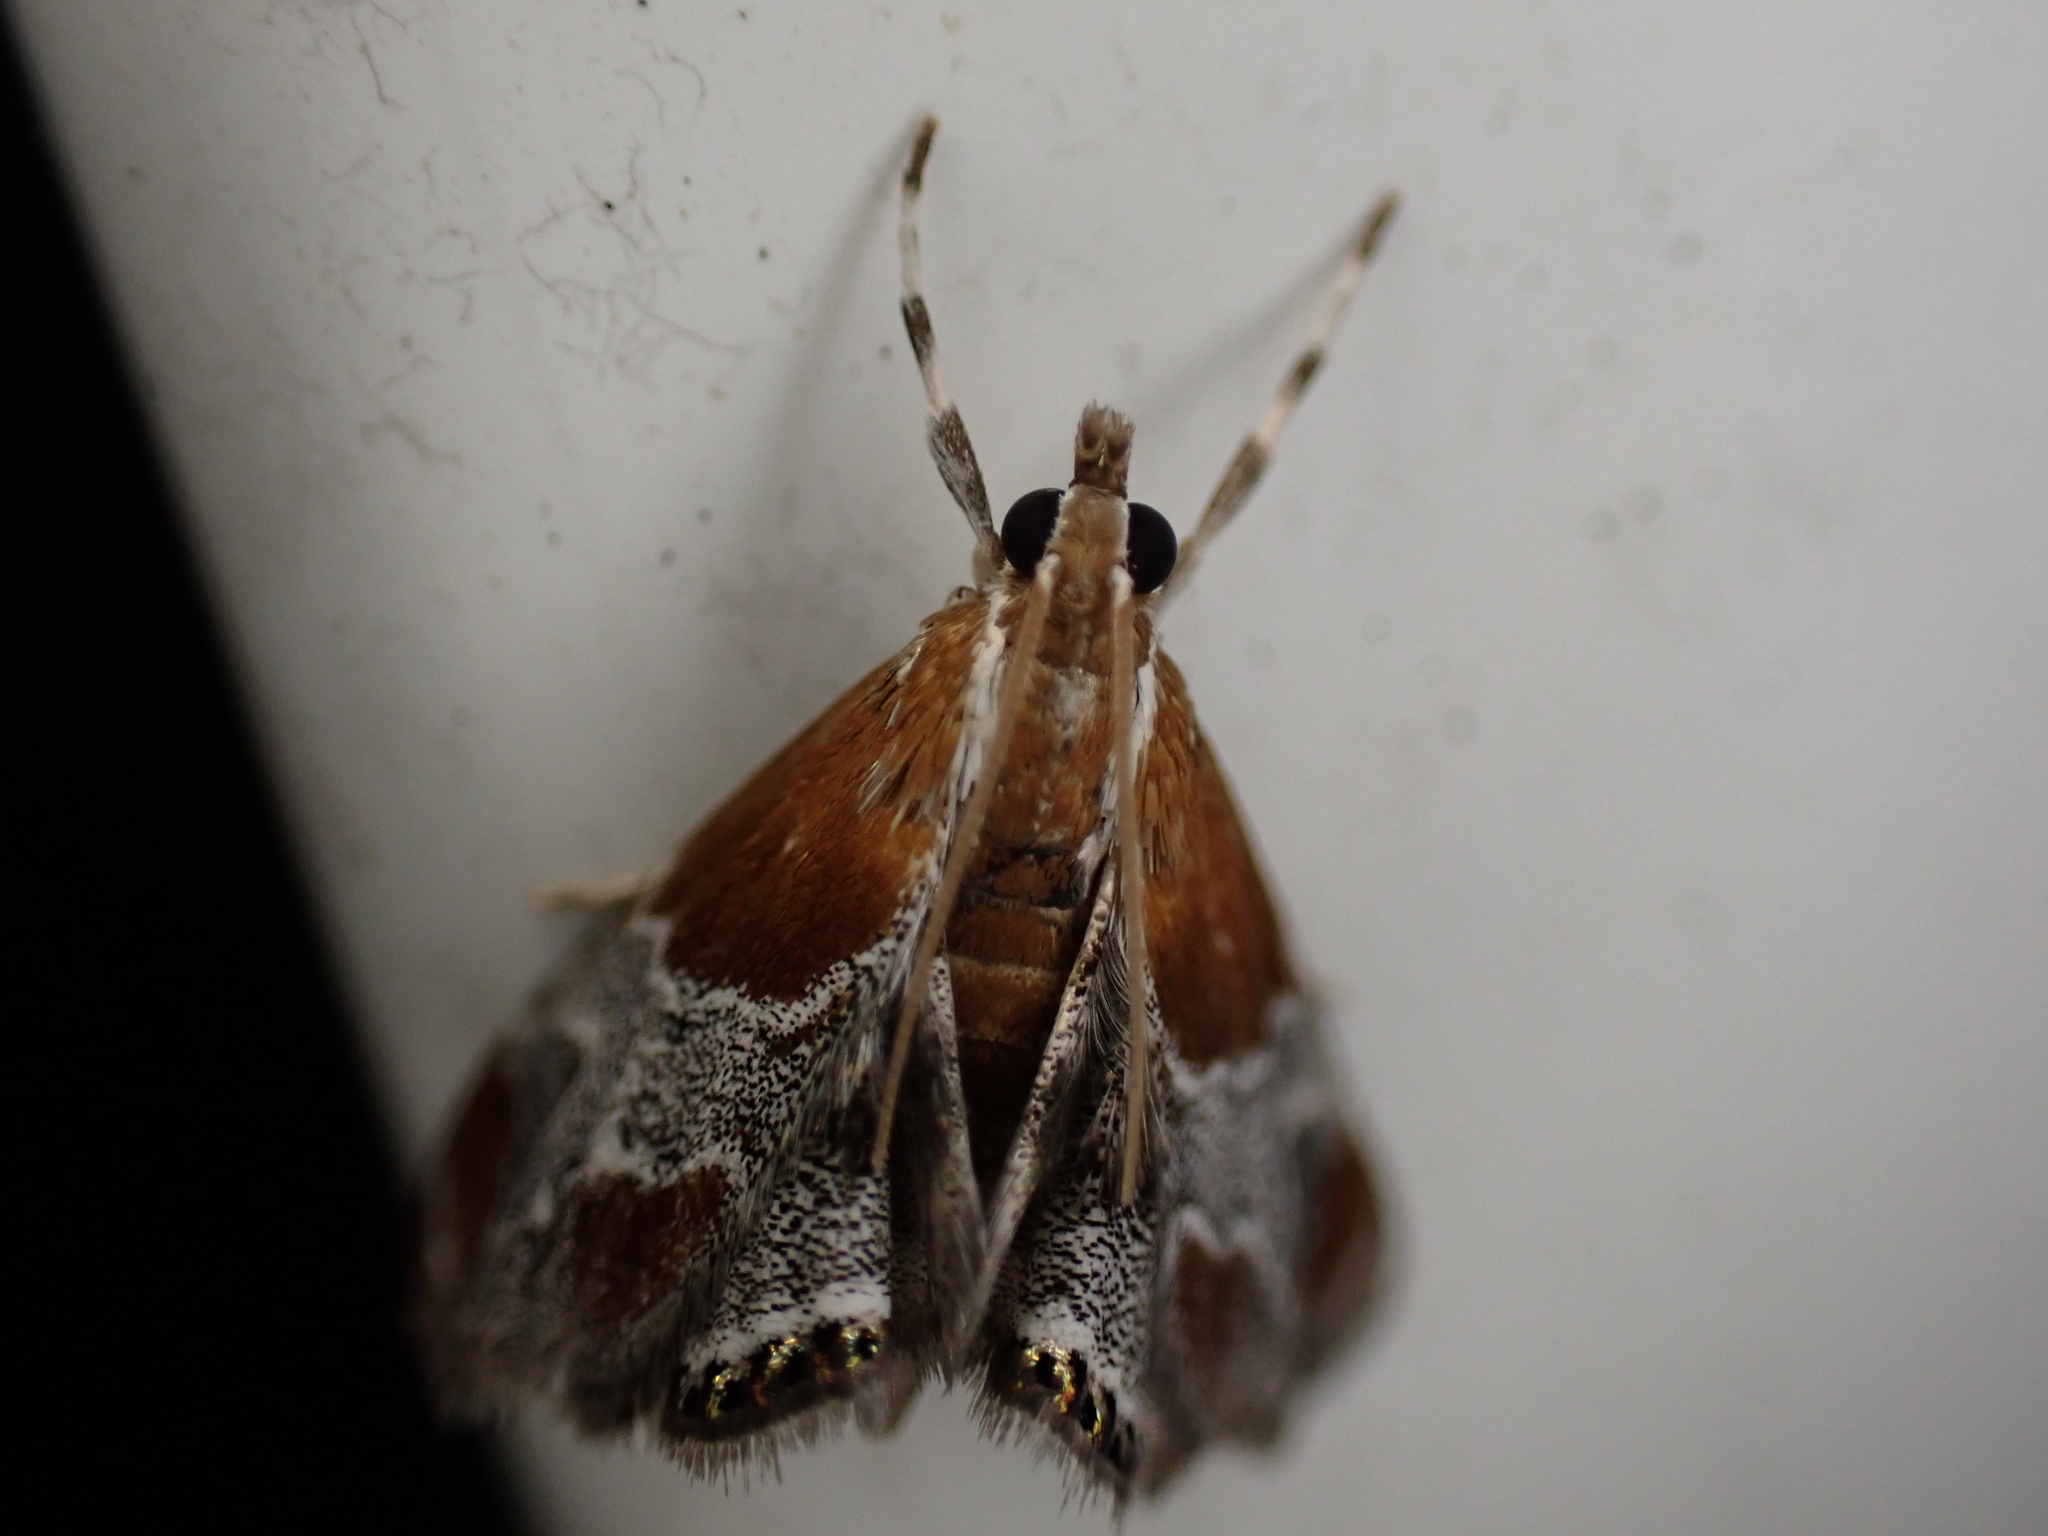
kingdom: Animalia
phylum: Arthropoda
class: Insecta
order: Lepidoptera
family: Crambidae
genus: Chalcoela
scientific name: Chalcoela pegasalis
